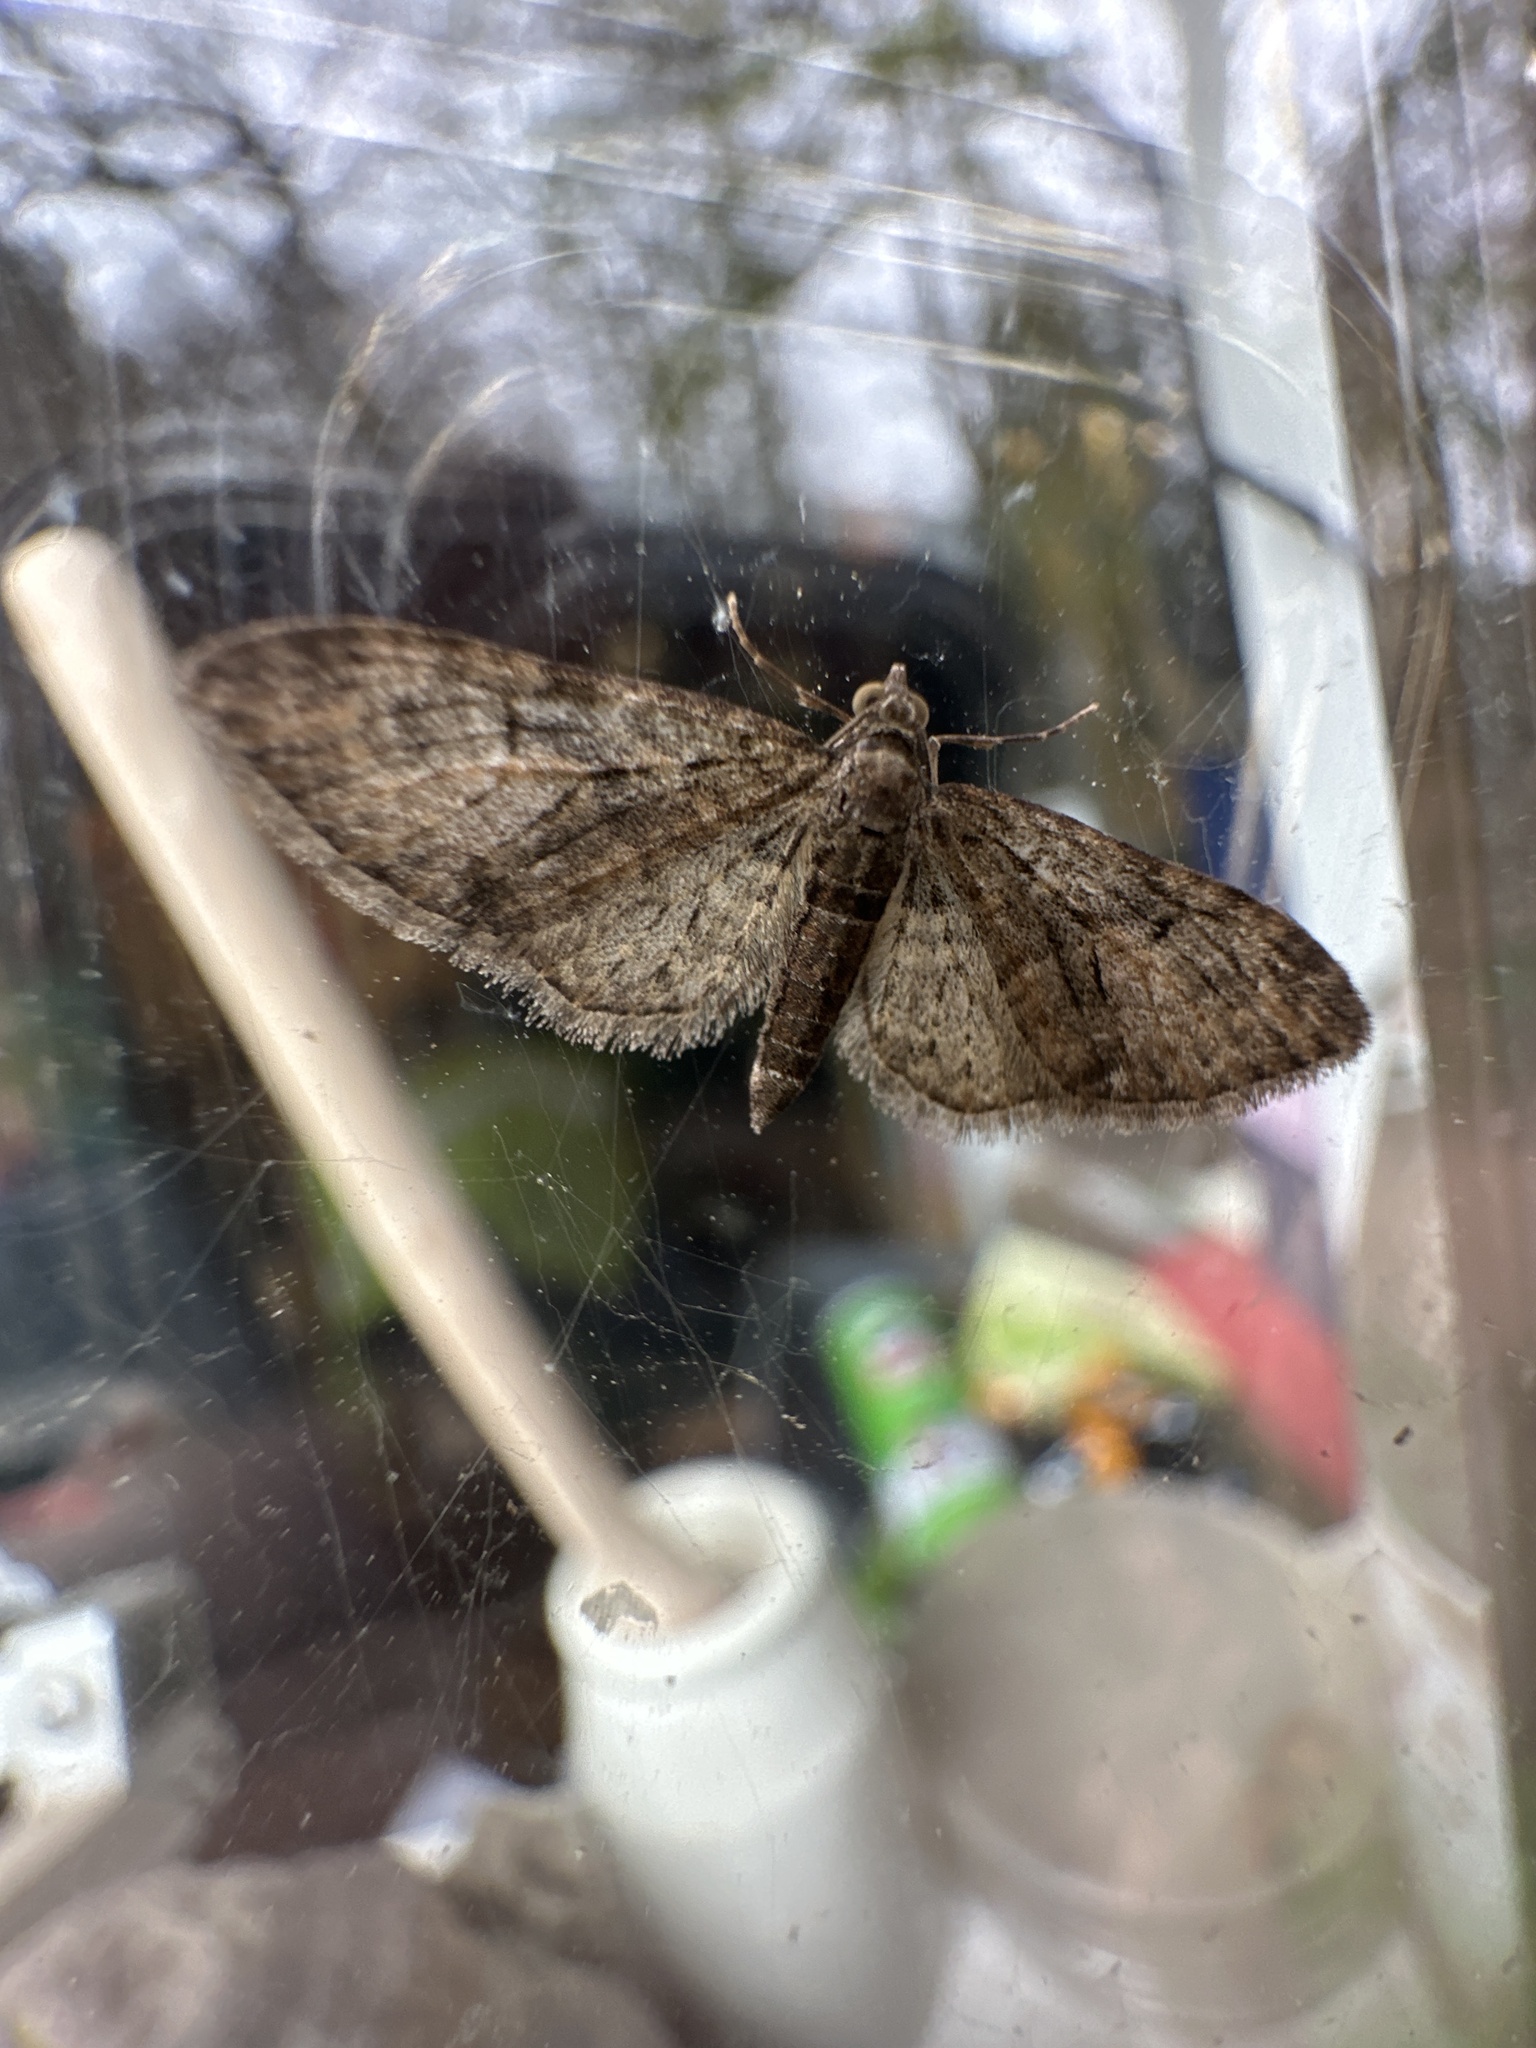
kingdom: Animalia
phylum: Arthropoda
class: Insecta
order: Lepidoptera
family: Geometridae
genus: Eupithecia
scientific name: Eupithecia abbreviata
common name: Brindled pug
